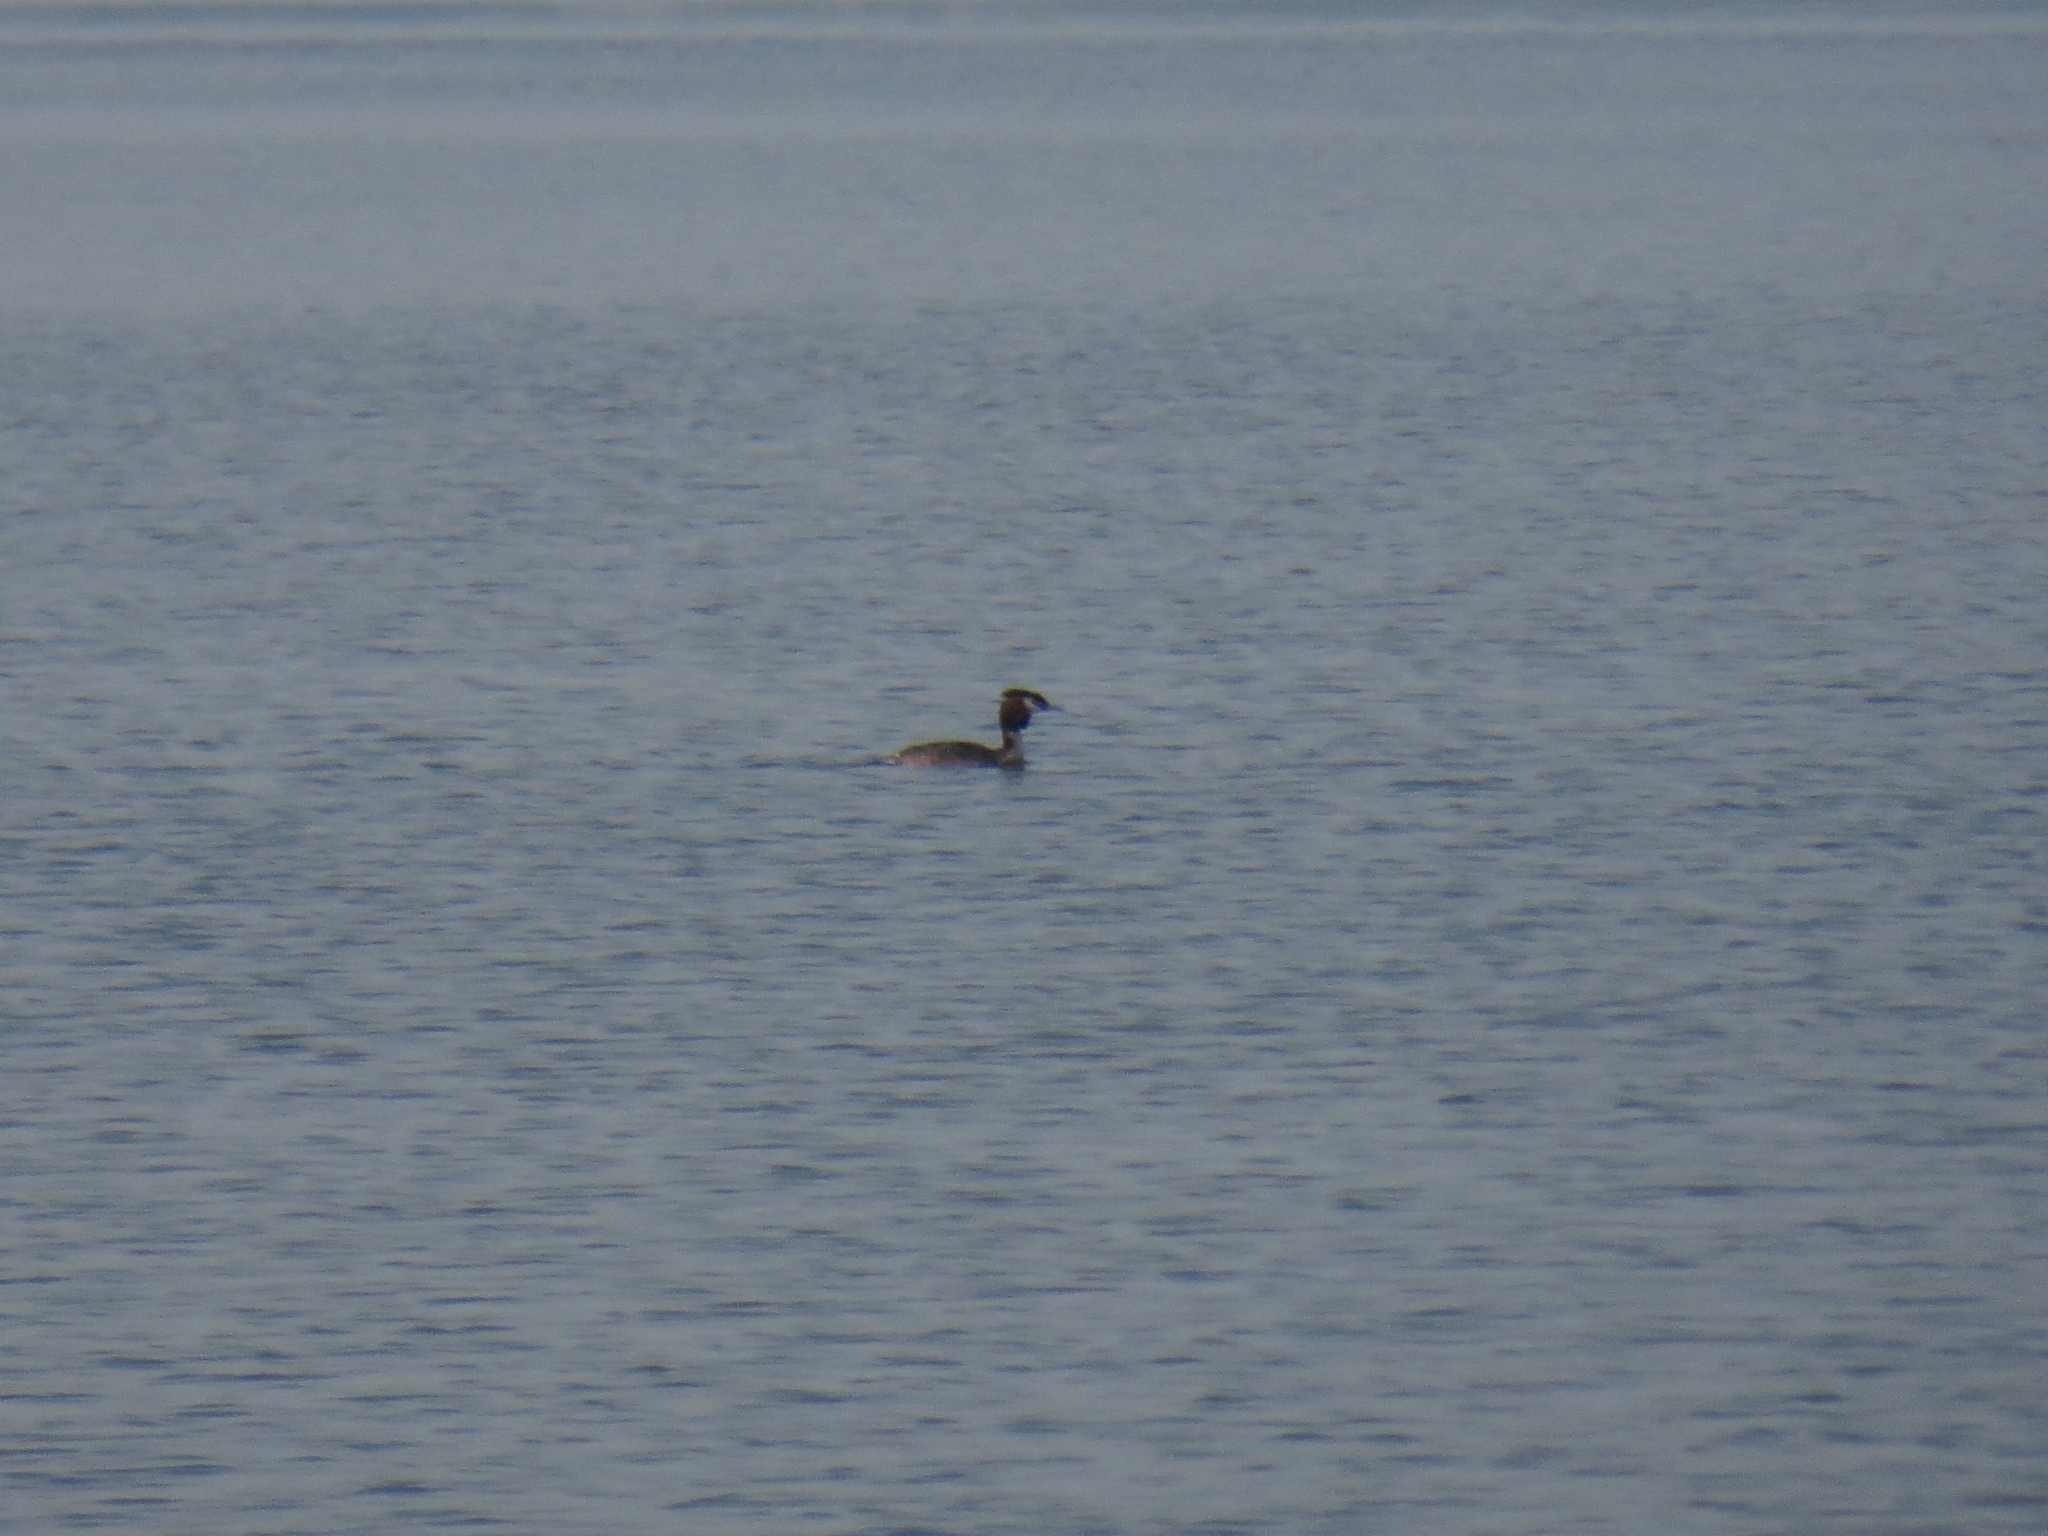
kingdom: Animalia
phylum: Chordata
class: Aves
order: Podicipediformes
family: Podicipedidae
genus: Podiceps
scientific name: Podiceps cristatus
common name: Great crested grebe
